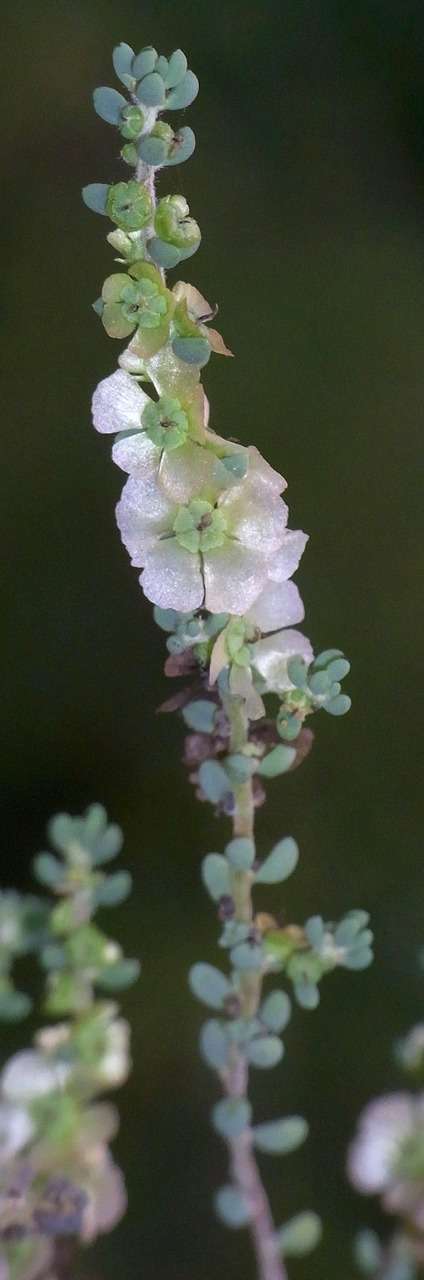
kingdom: Plantae
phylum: Tracheophyta
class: Magnoliopsida
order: Caryophyllales
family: Amaranthaceae
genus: Maireana
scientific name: Maireana brevifolia
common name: Eastern cottonbush
